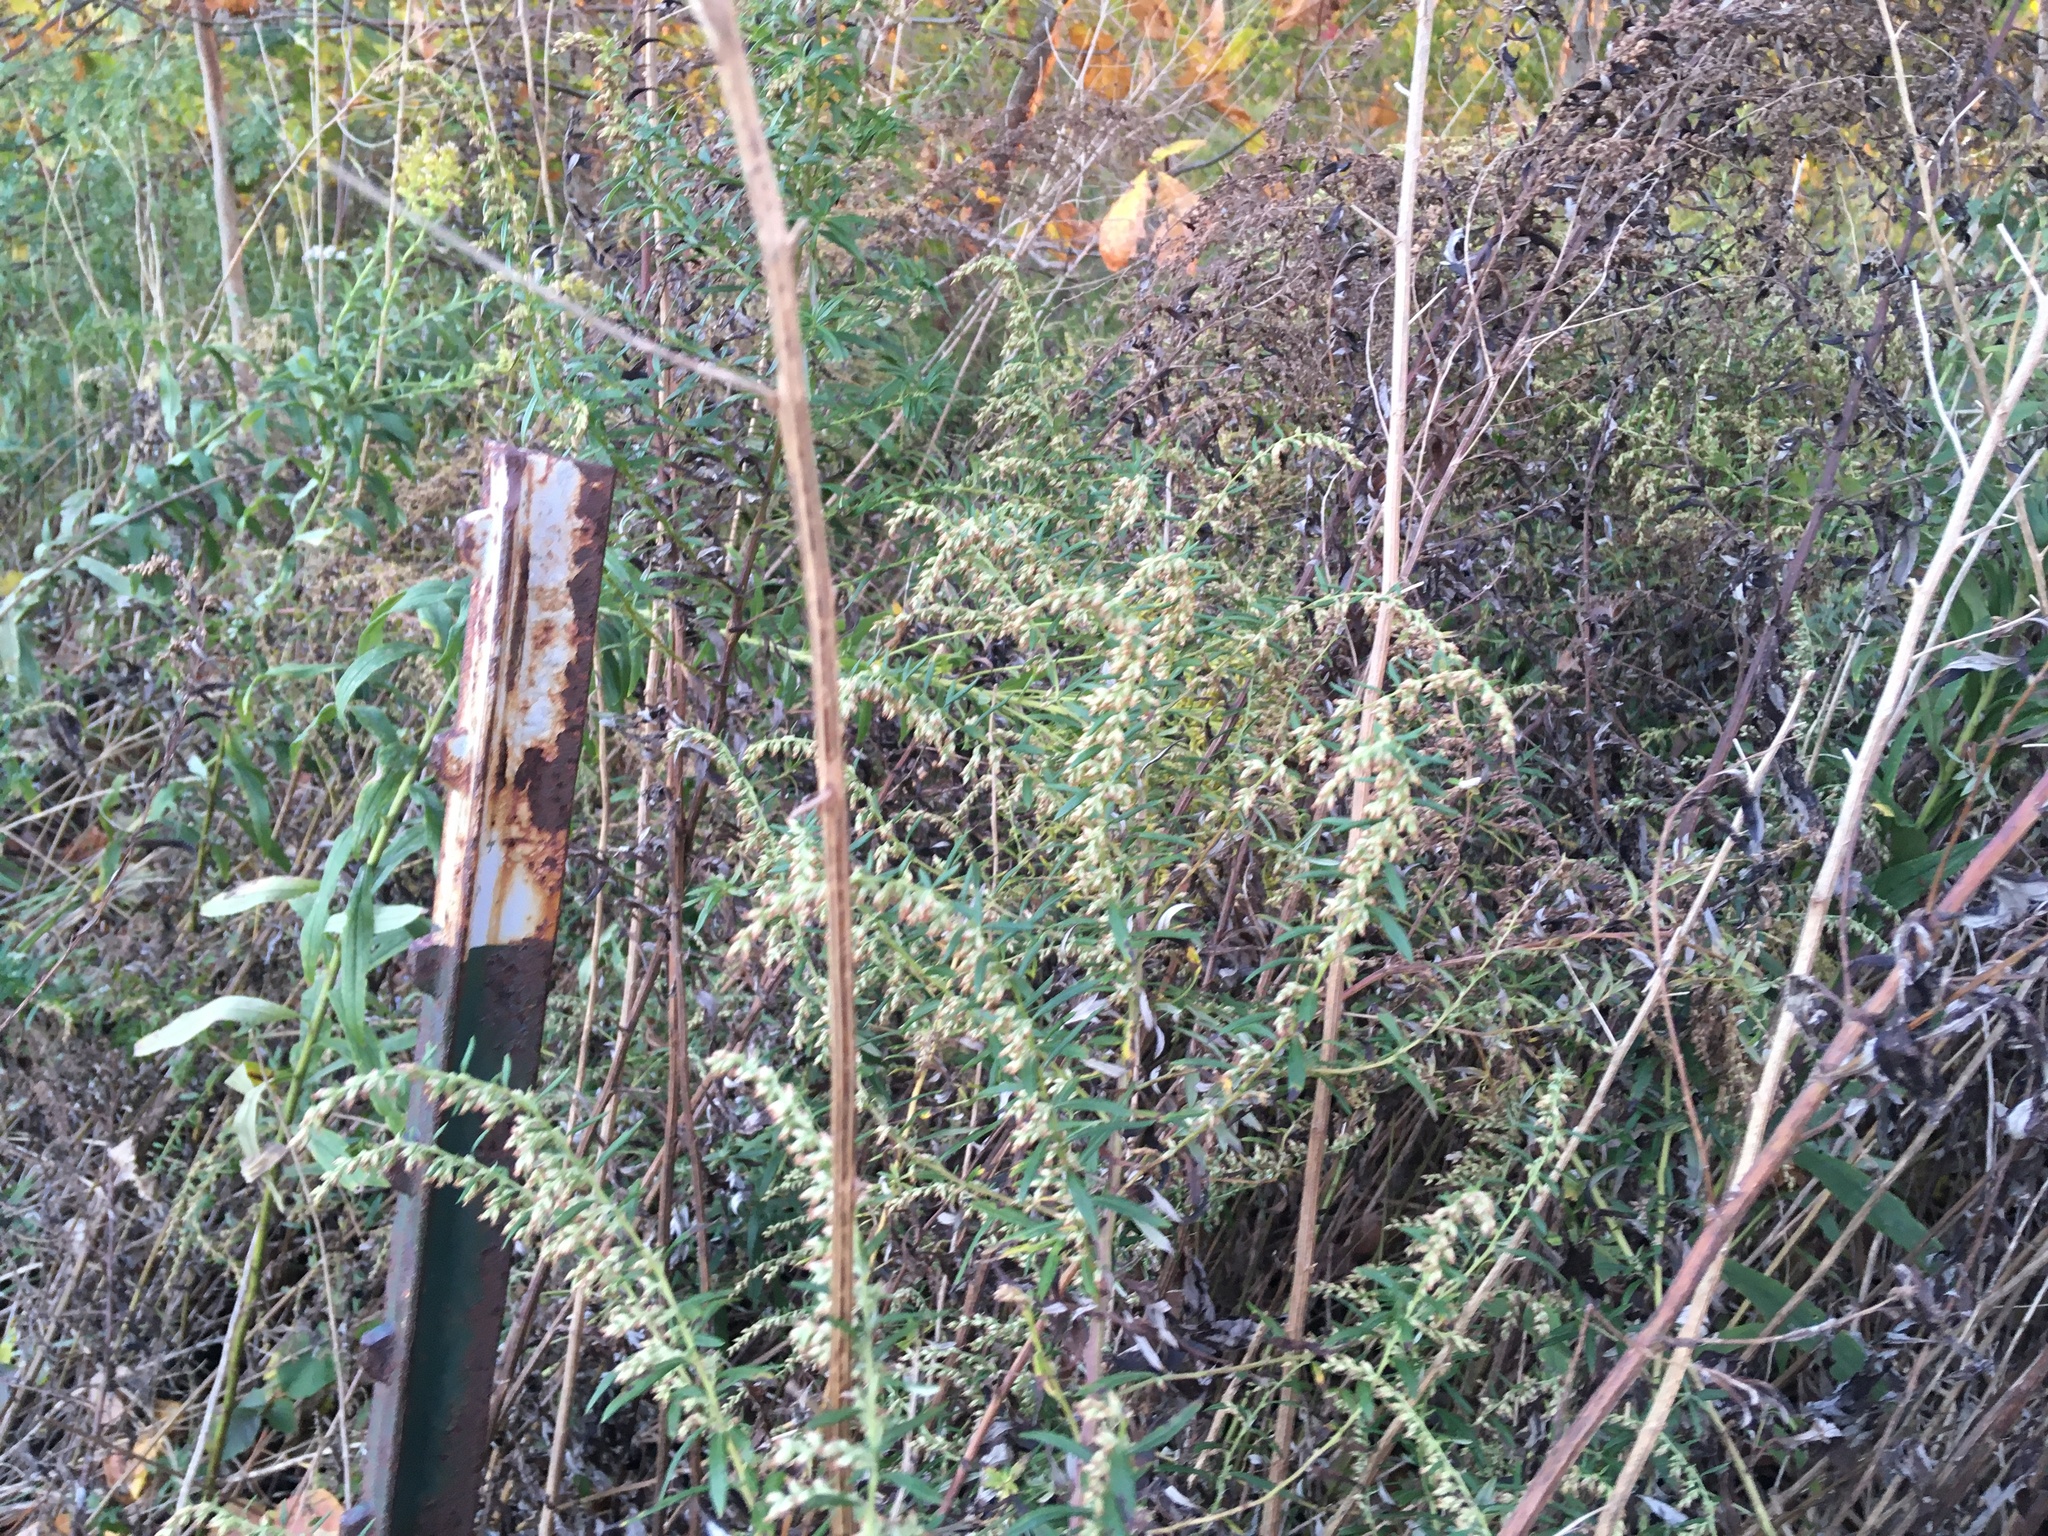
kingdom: Plantae
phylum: Tracheophyta
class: Magnoliopsida
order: Asterales
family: Asteraceae
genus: Artemisia
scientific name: Artemisia vulgaris
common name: Mugwort
